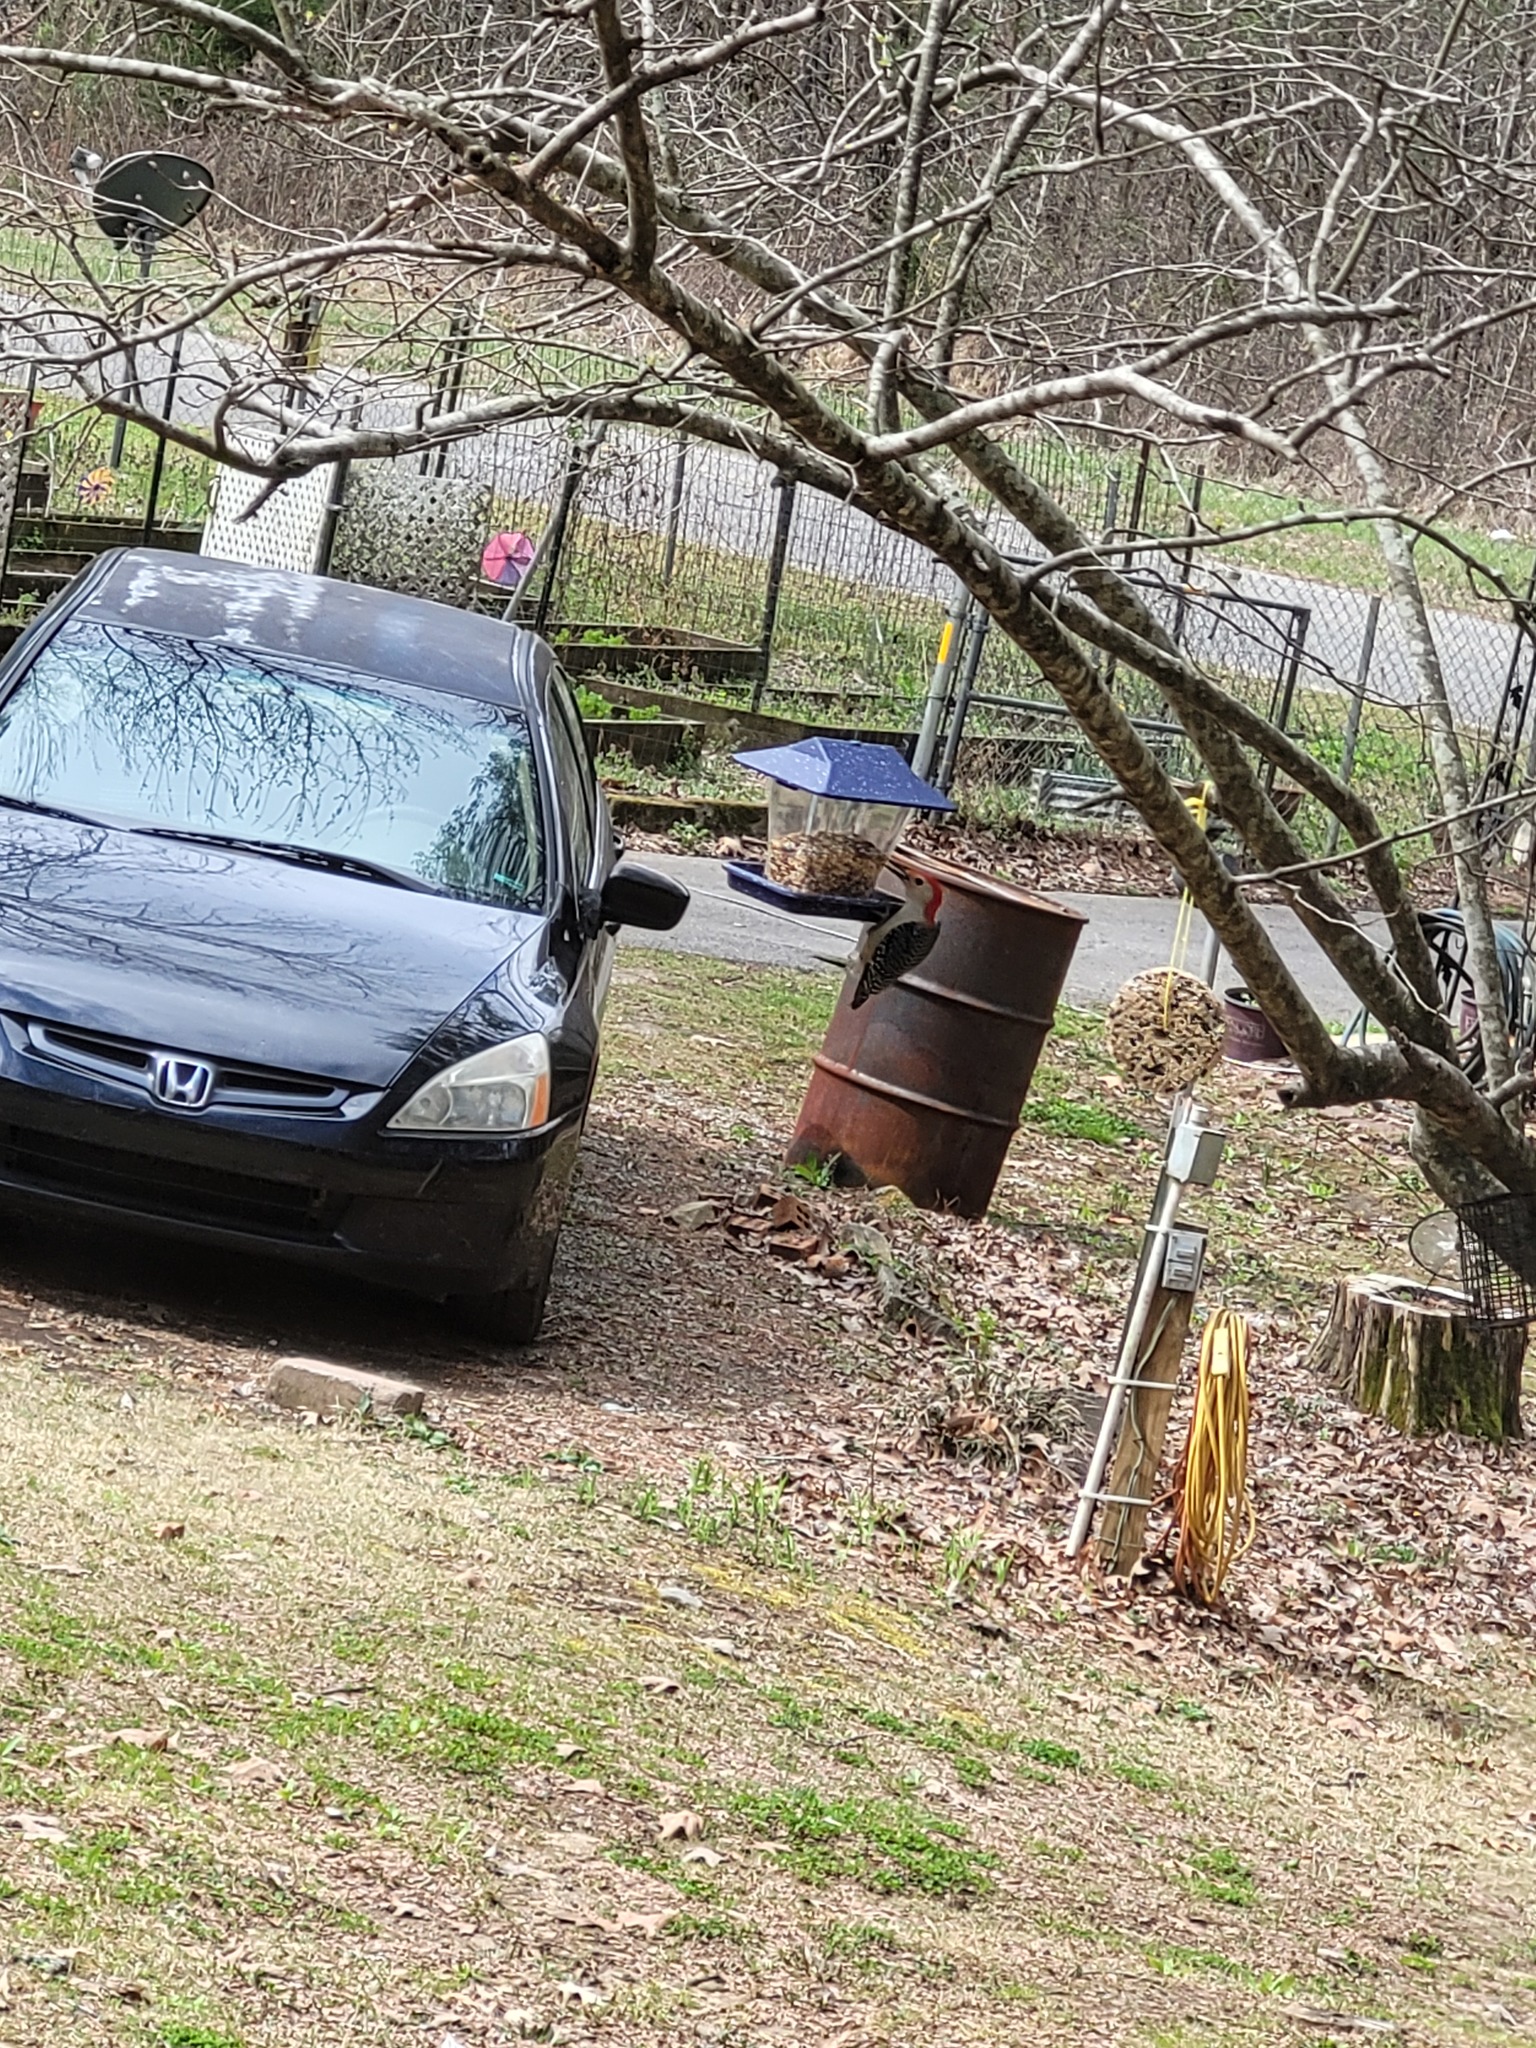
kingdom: Animalia
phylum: Chordata
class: Aves
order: Piciformes
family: Picidae
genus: Melanerpes
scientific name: Melanerpes carolinus
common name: Red-bellied woodpecker
